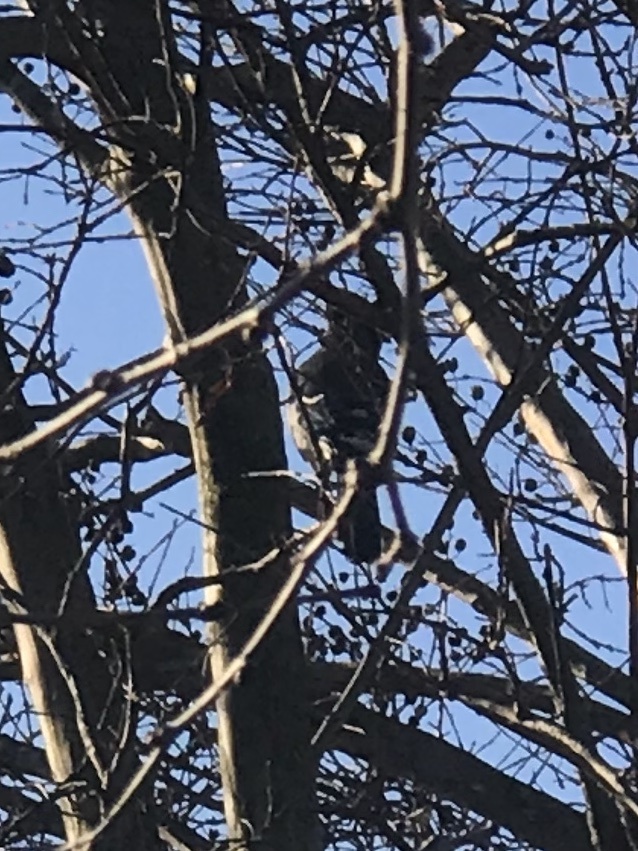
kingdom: Animalia
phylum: Chordata
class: Aves
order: Passeriformes
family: Corvidae
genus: Cyanocitta
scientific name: Cyanocitta cristata
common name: Blue jay
